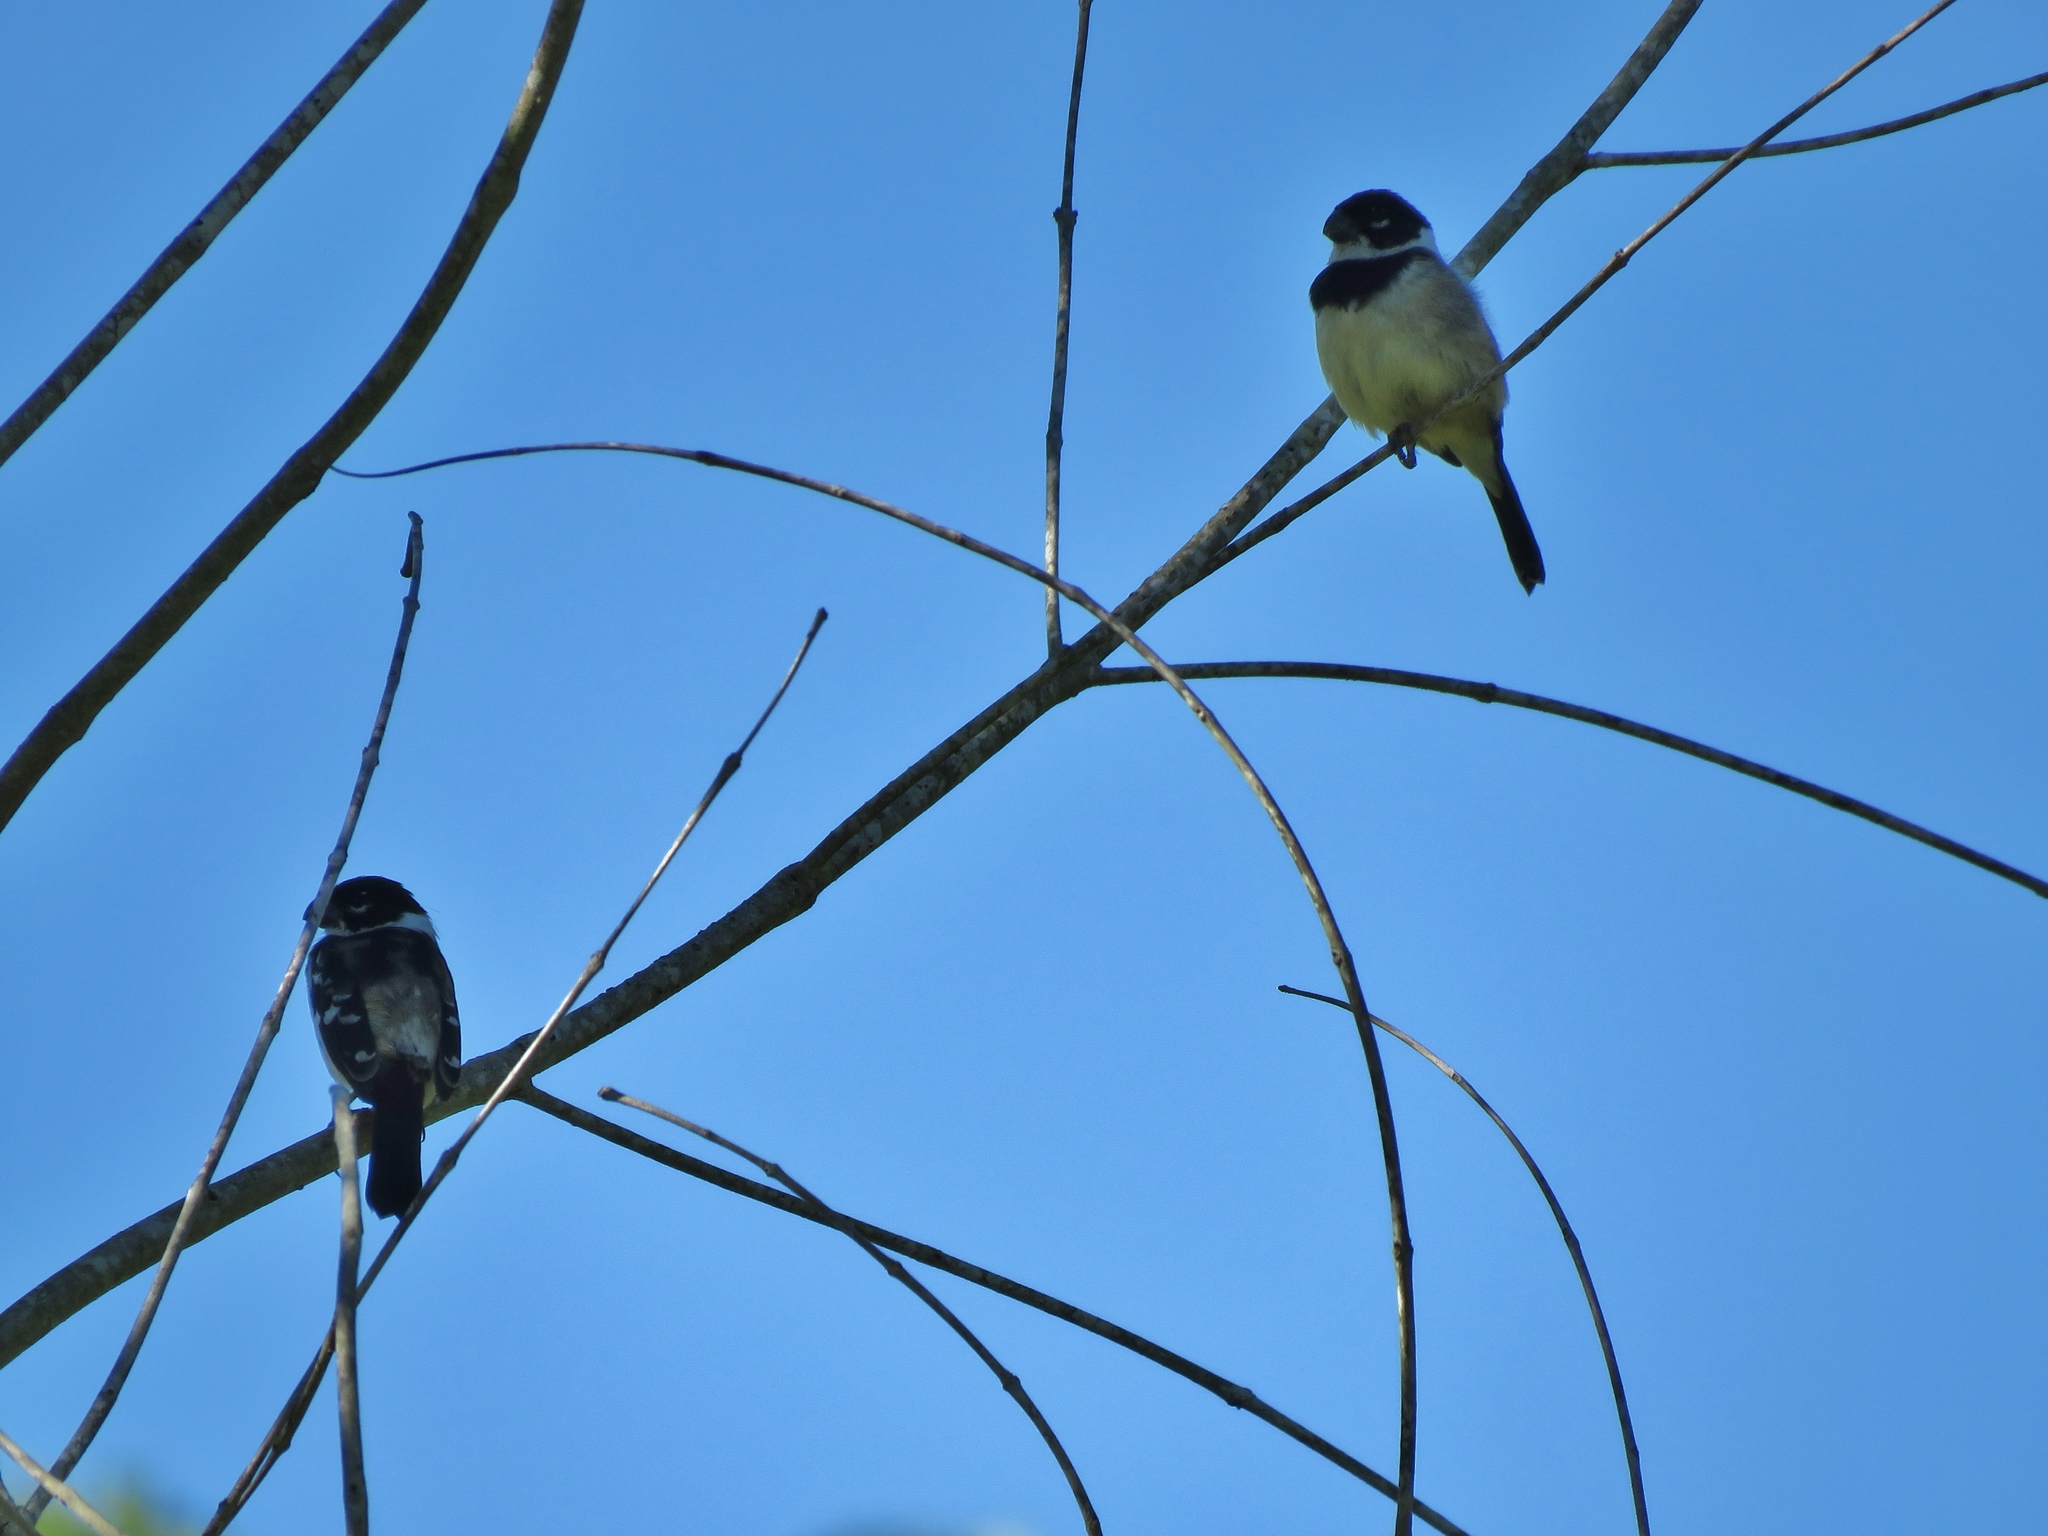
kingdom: Animalia
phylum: Chordata
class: Aves
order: Passeriformes
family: Thraupidae
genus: Sporophila
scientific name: Sporophila morelleti
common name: Morelet's seedeater
